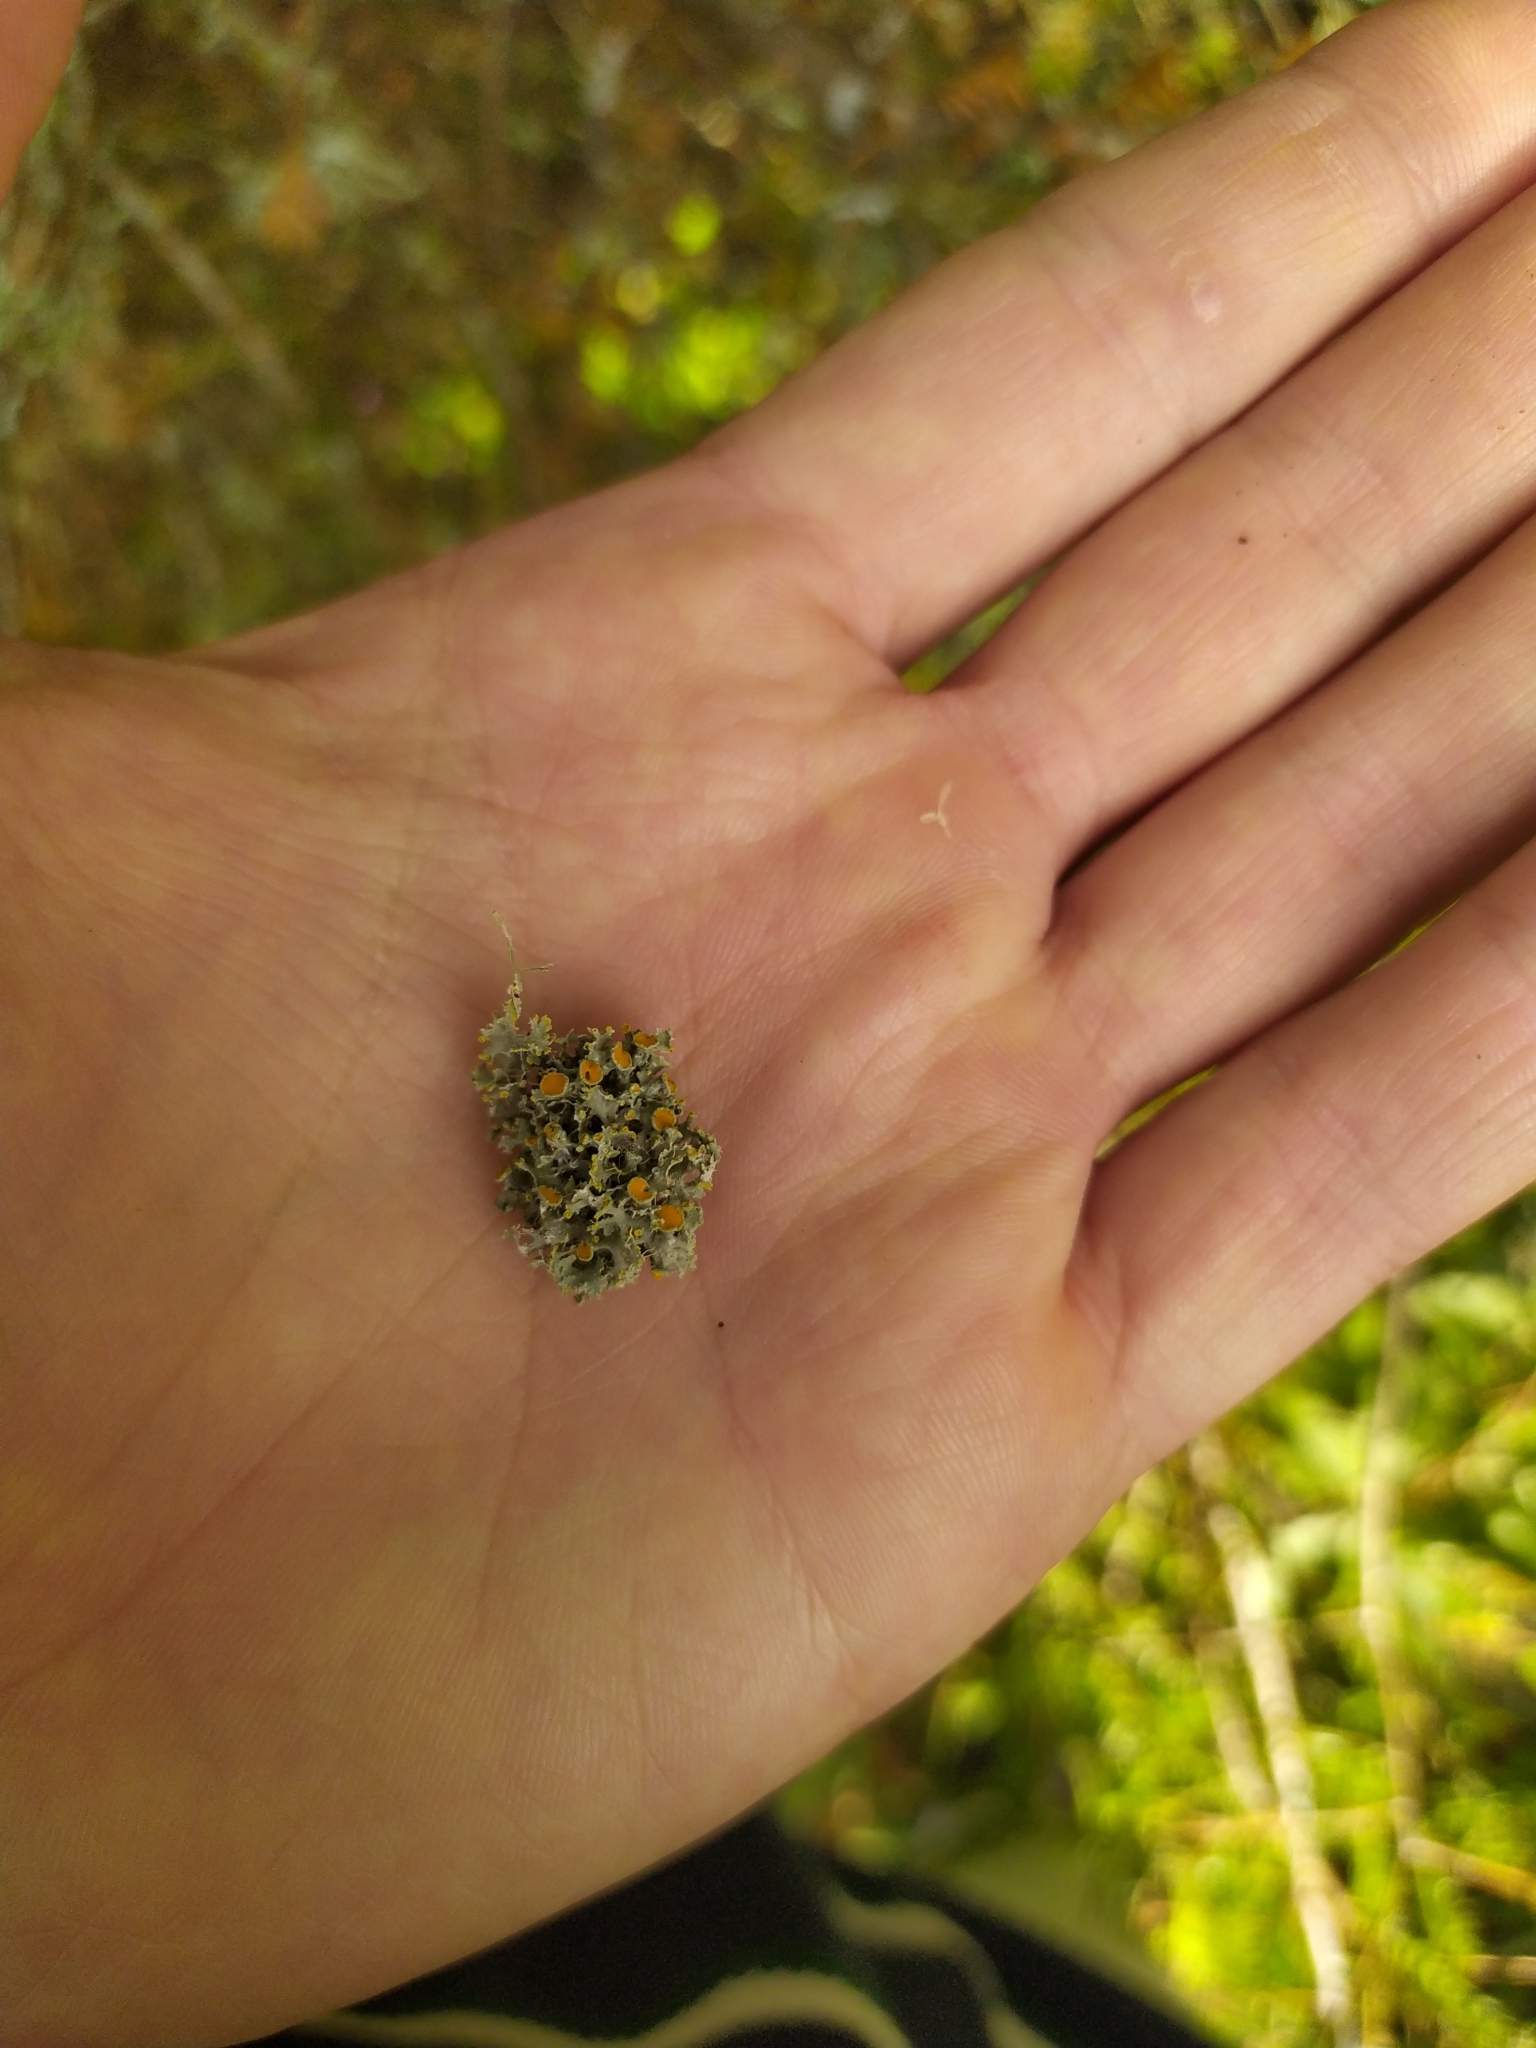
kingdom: Fungi
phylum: Ascomycota
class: Lecanoromycetes
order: Teloschistales
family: Teloschistaceae
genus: Teloschistes
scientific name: Teloschistes sieberianus
